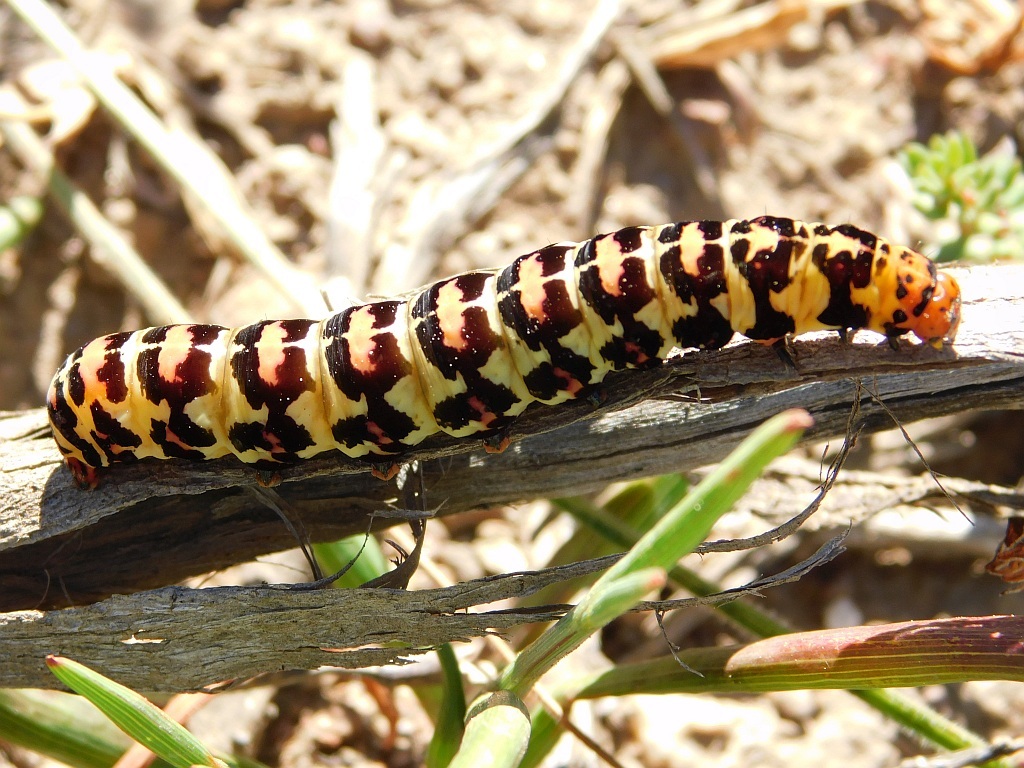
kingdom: Animalia
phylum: Arthropoda
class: Insecta
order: Lepidoptera
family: Noctuidae
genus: Diaphone
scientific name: Diaphone eumela
